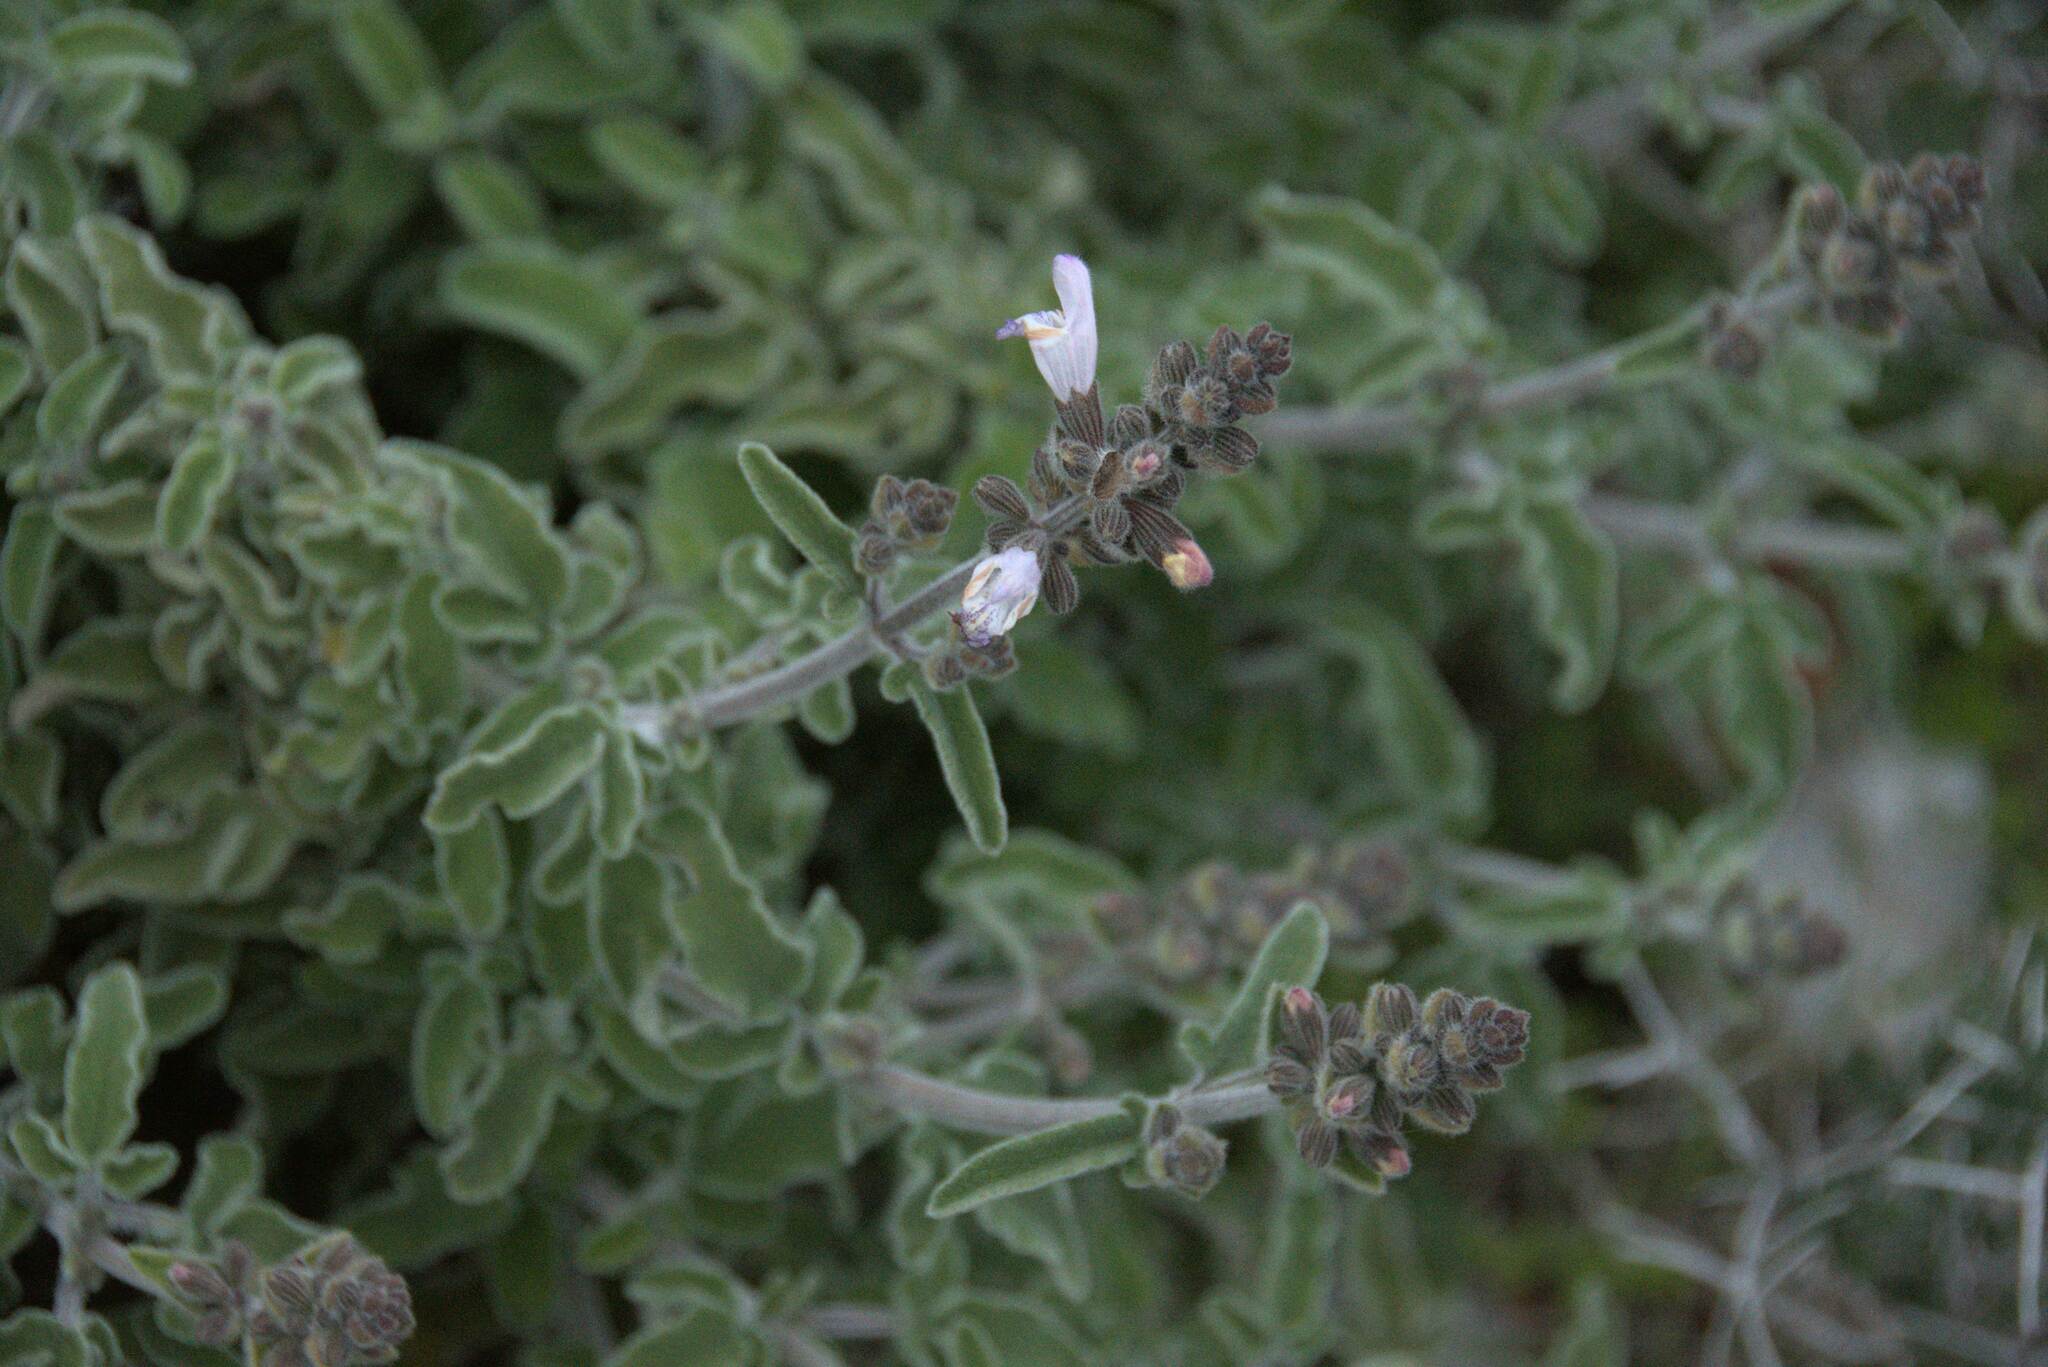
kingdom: Plantae
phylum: Tracheophyta
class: Magnoliopsida
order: Lamiales
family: Lamiaceae
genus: Salvia
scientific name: Salvia fruticosa
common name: Greek sage
